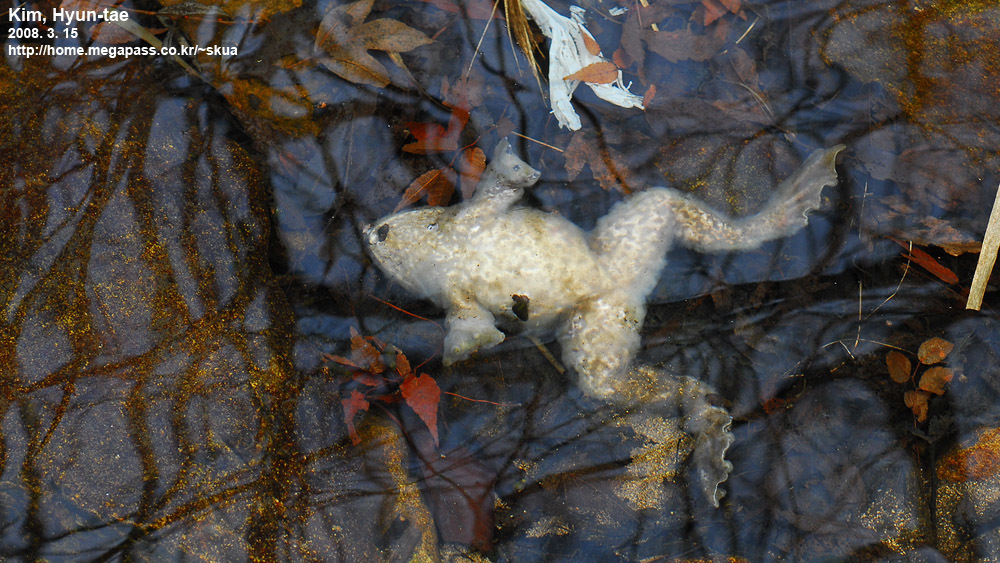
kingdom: Animalia
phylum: Chordata
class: Amphibia
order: Anura
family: Ranidae
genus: Lithobates
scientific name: Lithobates catesbeianus
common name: American bullfrog
